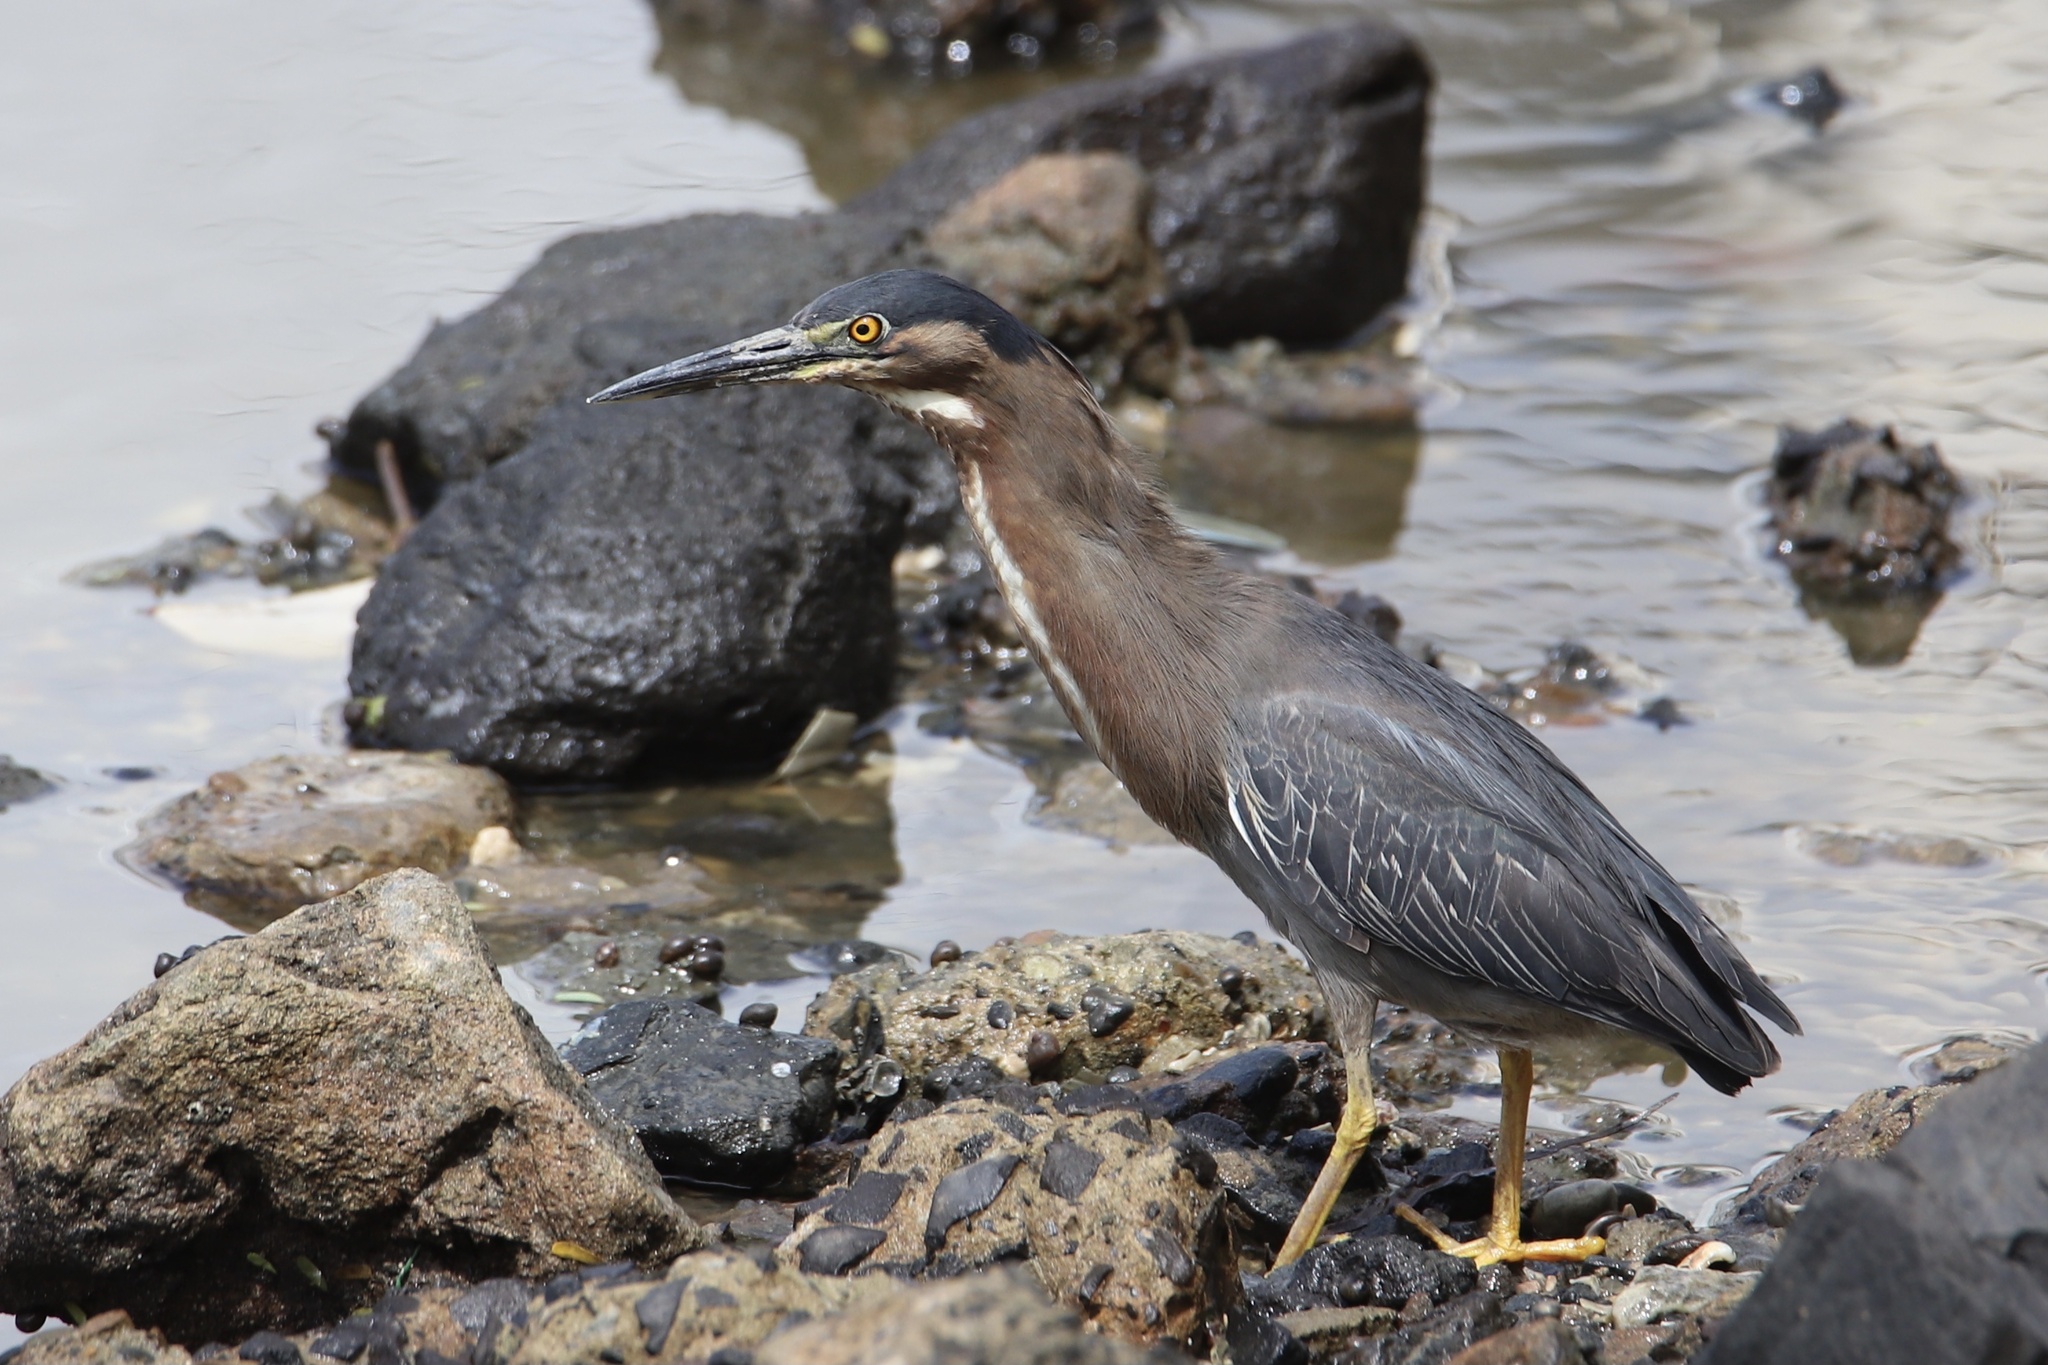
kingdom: Animalia
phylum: Chordata
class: Aves
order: Pelecaniformes
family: Ardeidae
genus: Butorides
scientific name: Butorides virescens
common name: Green heron
